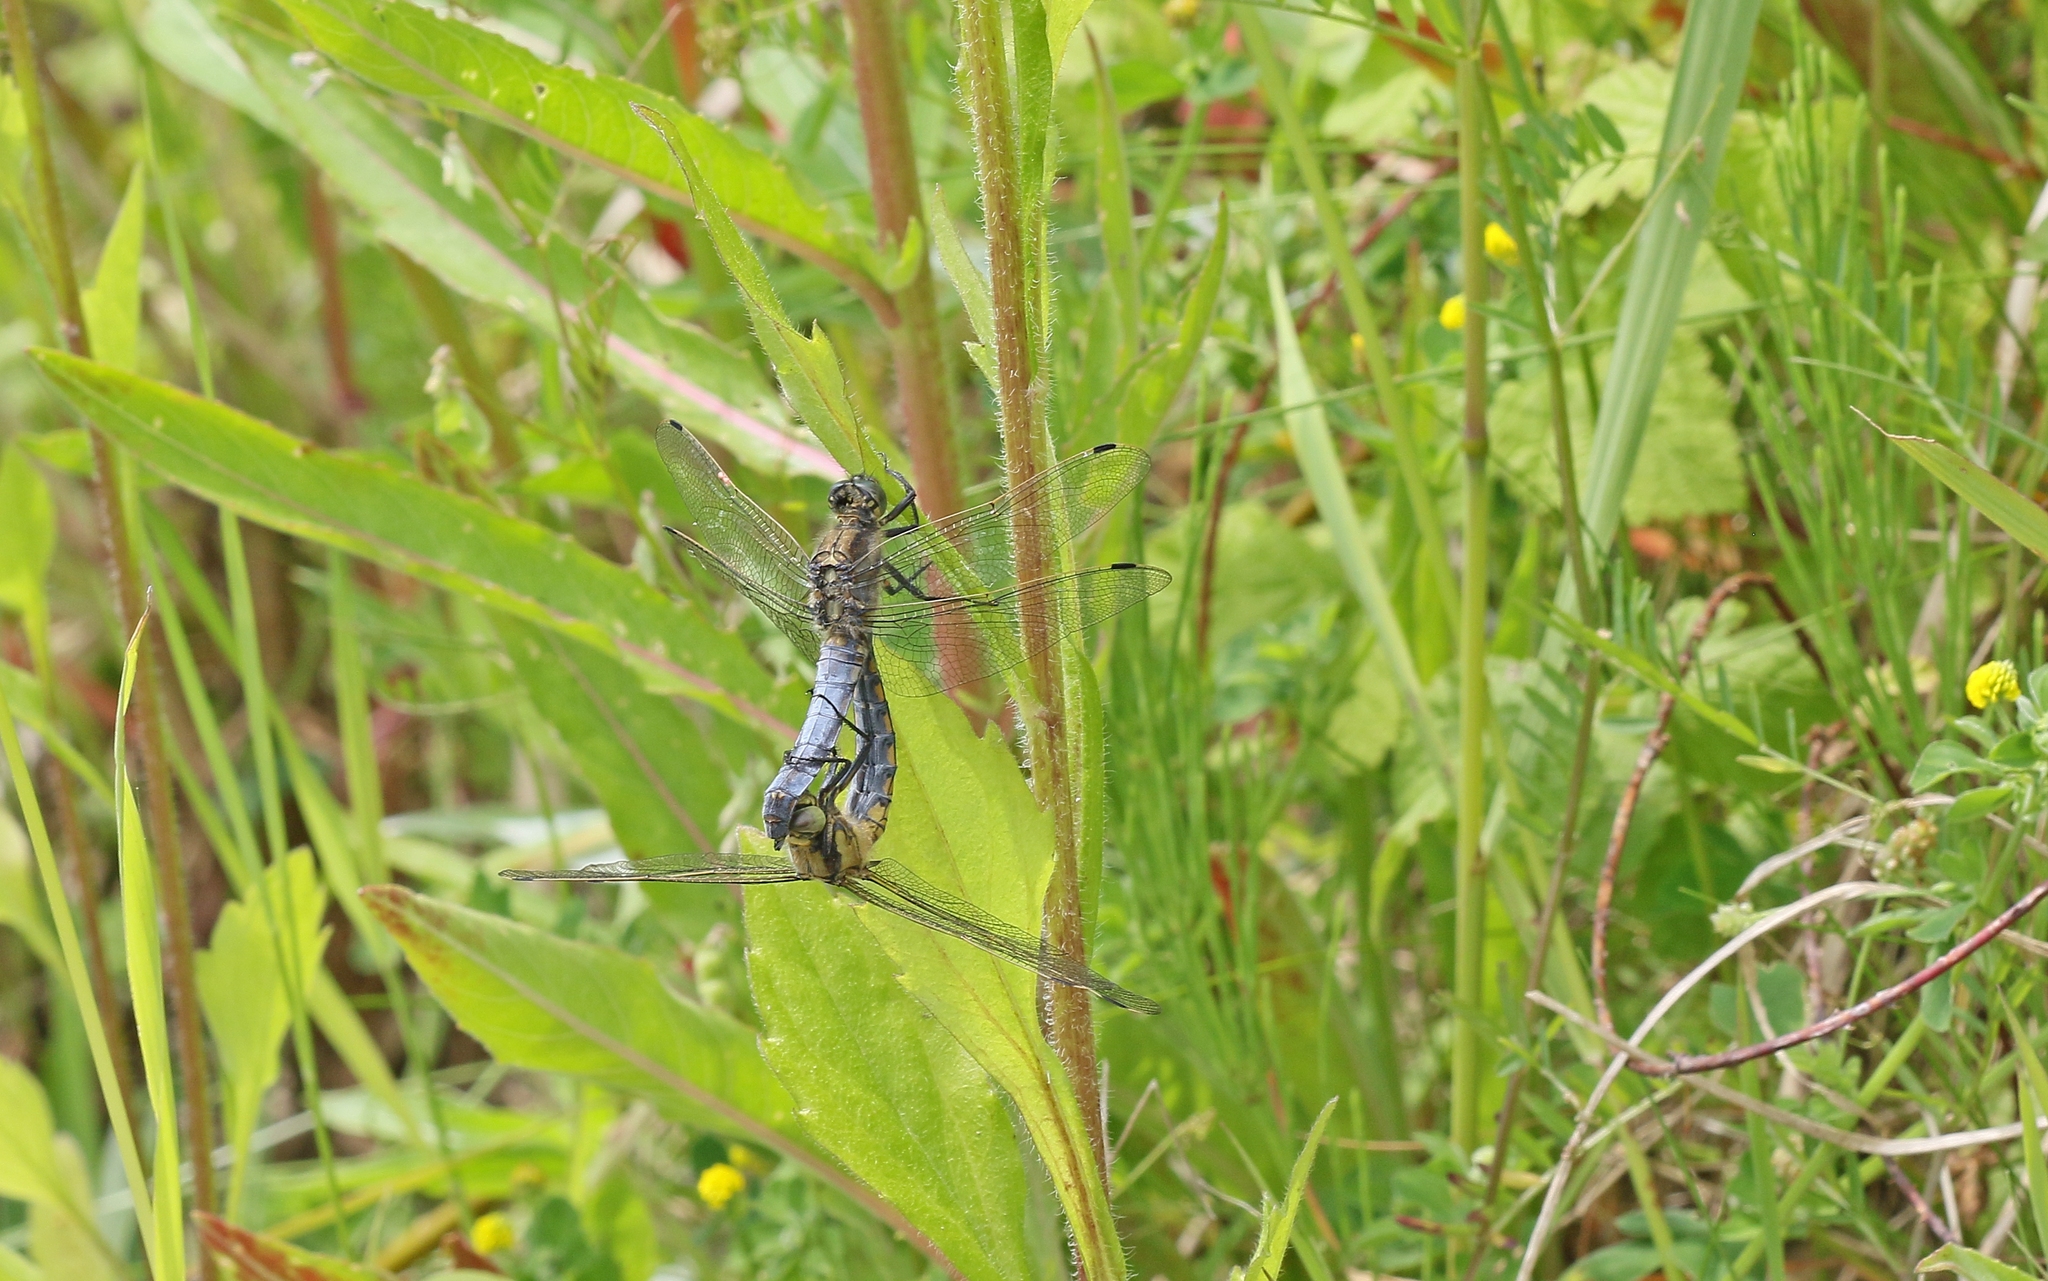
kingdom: Animalia
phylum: Arthropoda
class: Insecta
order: Odonata
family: Libellulidae
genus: Orthetrum
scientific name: Orthetrum cancellatum
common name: Black-tailed skimmer
